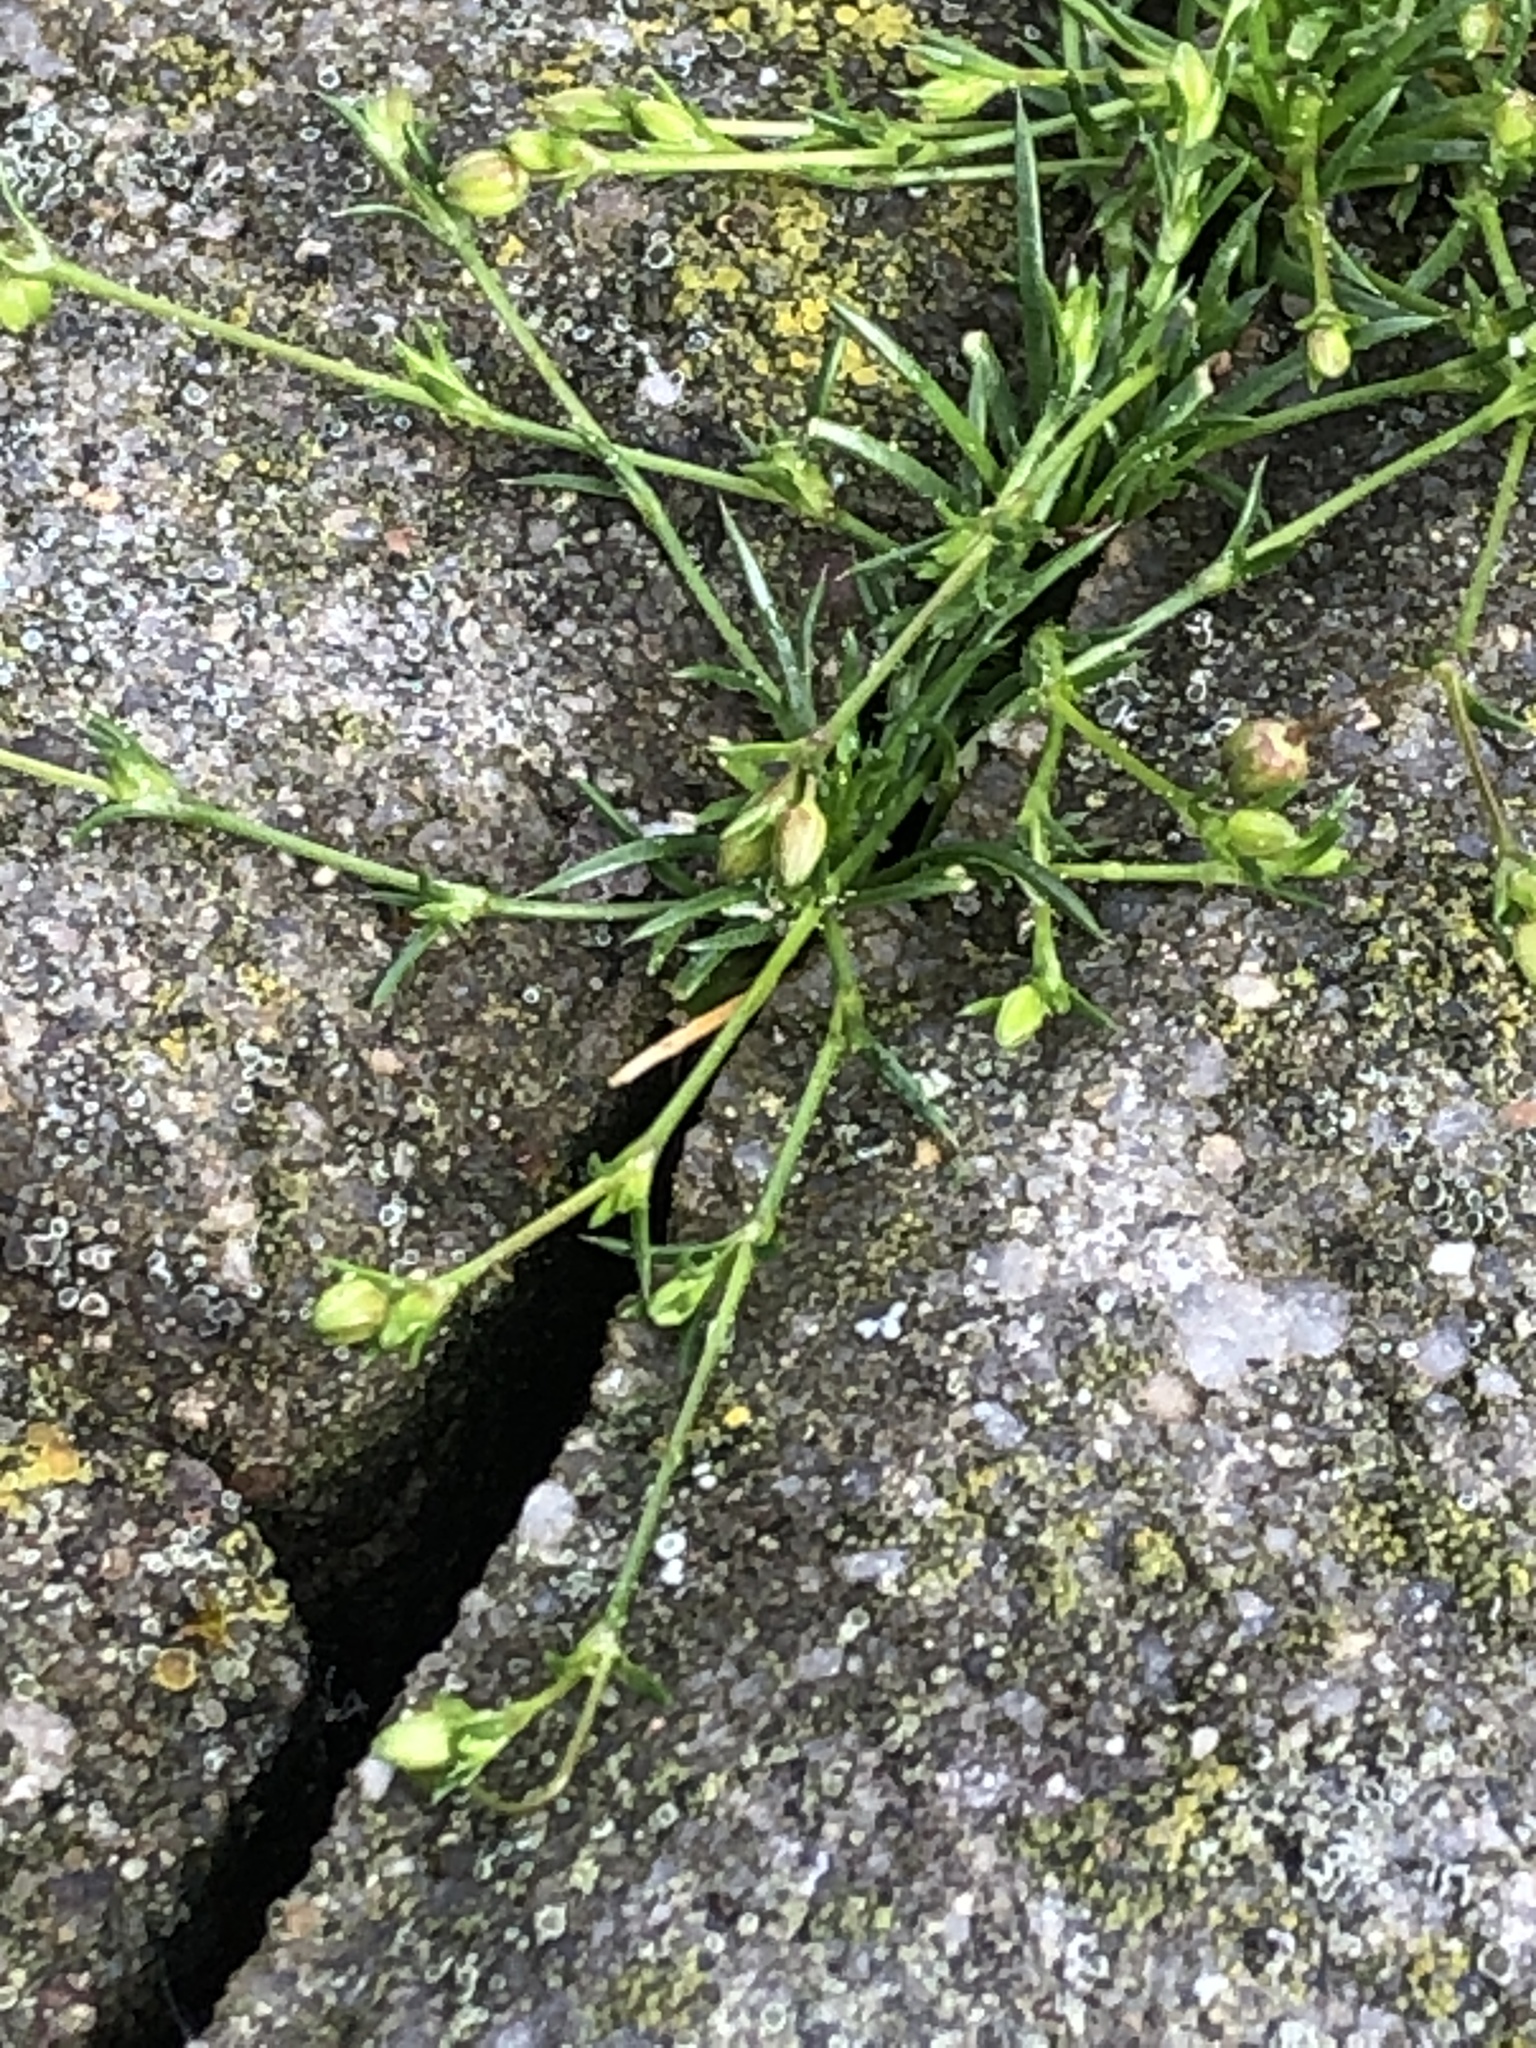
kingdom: Plantae
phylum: Tracheophyta
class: Magnoliopsida
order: Caryophyllales
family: Caryophyllaceae
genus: Sagina
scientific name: Sagina procumbens
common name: Procumbent pearlwort
